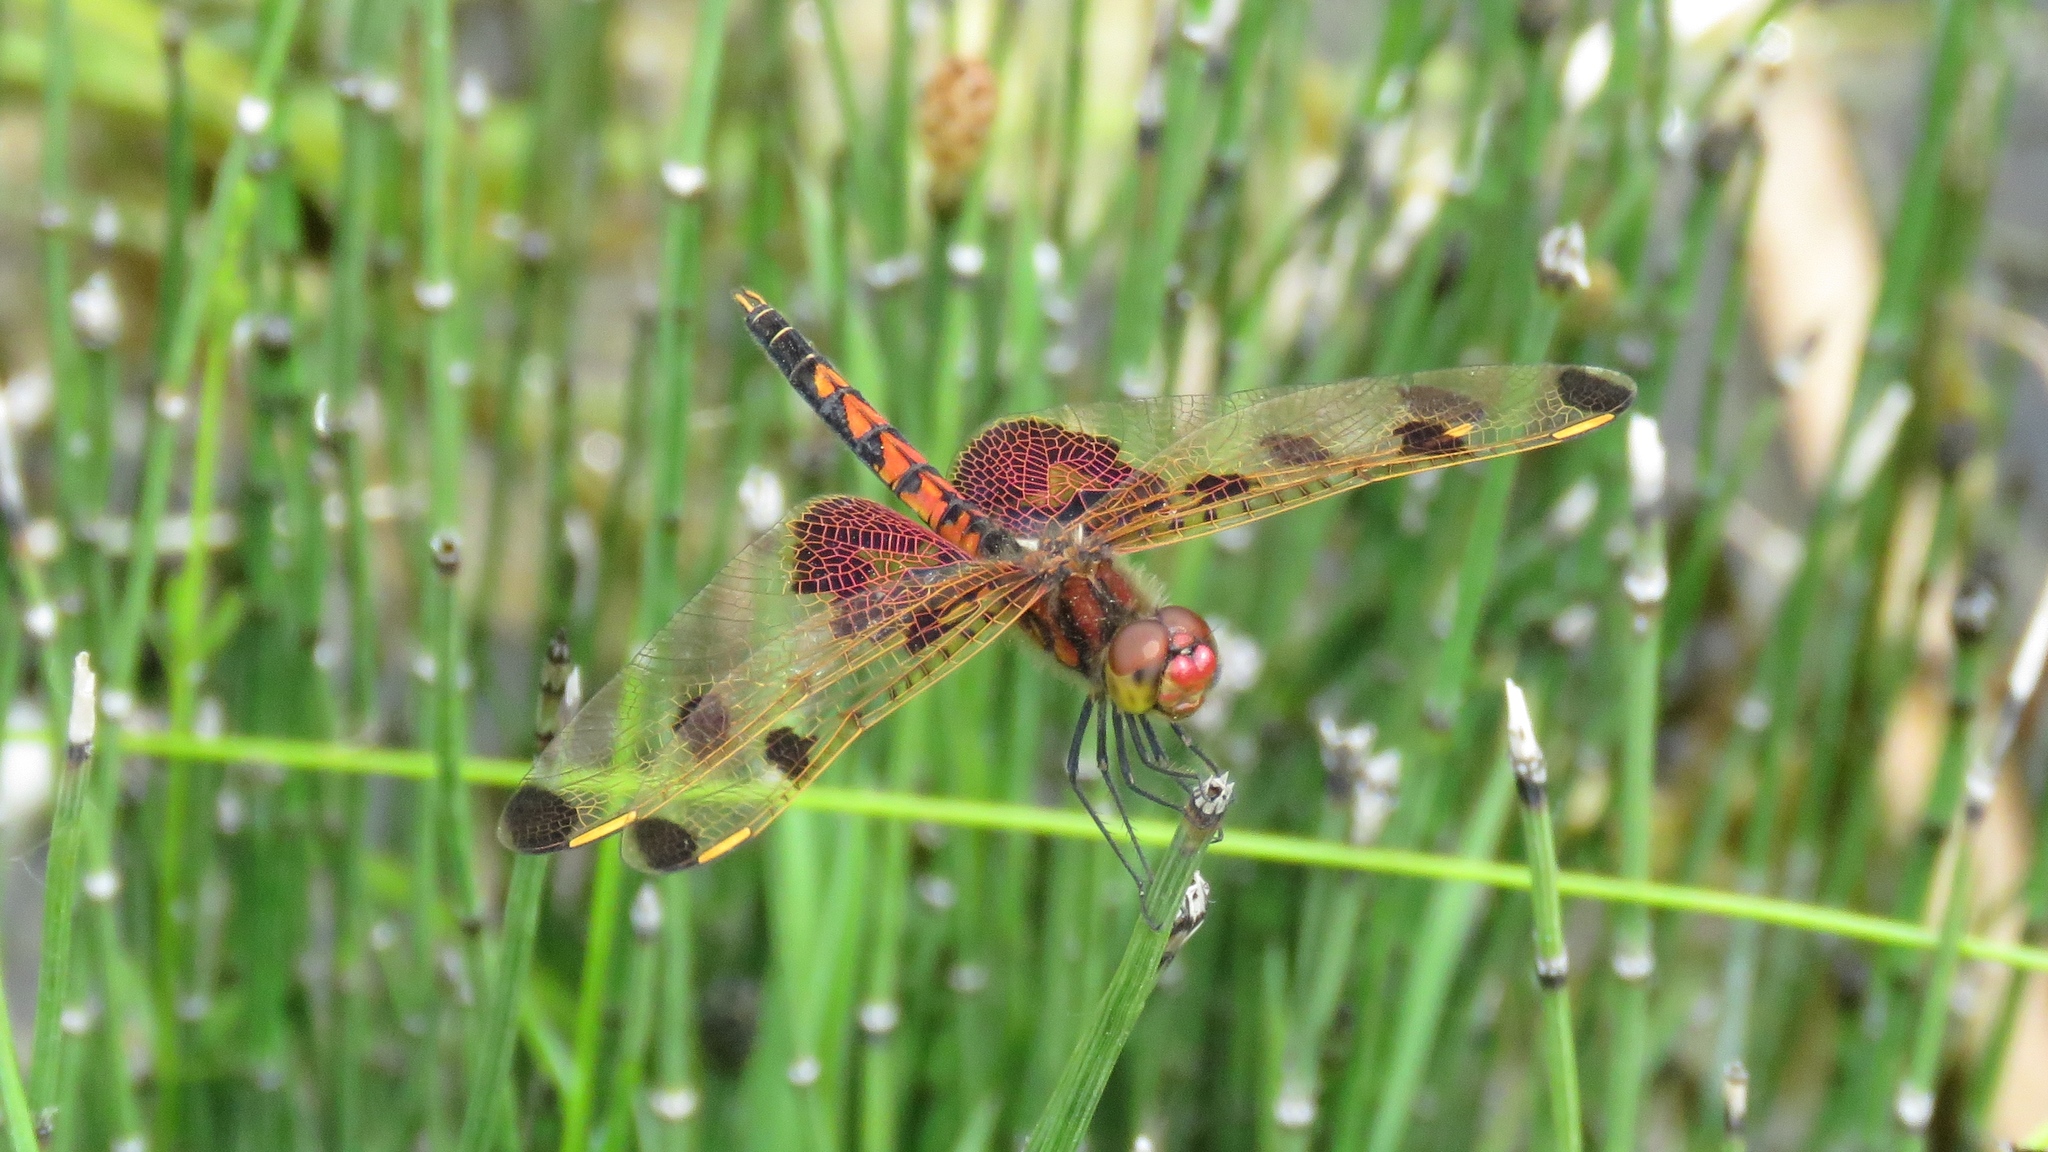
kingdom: Animalia
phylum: Arthropoda
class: Insecta
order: Odonata
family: Libellulidae
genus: Celithemis
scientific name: Celithemis elisa
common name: Calico pennant
